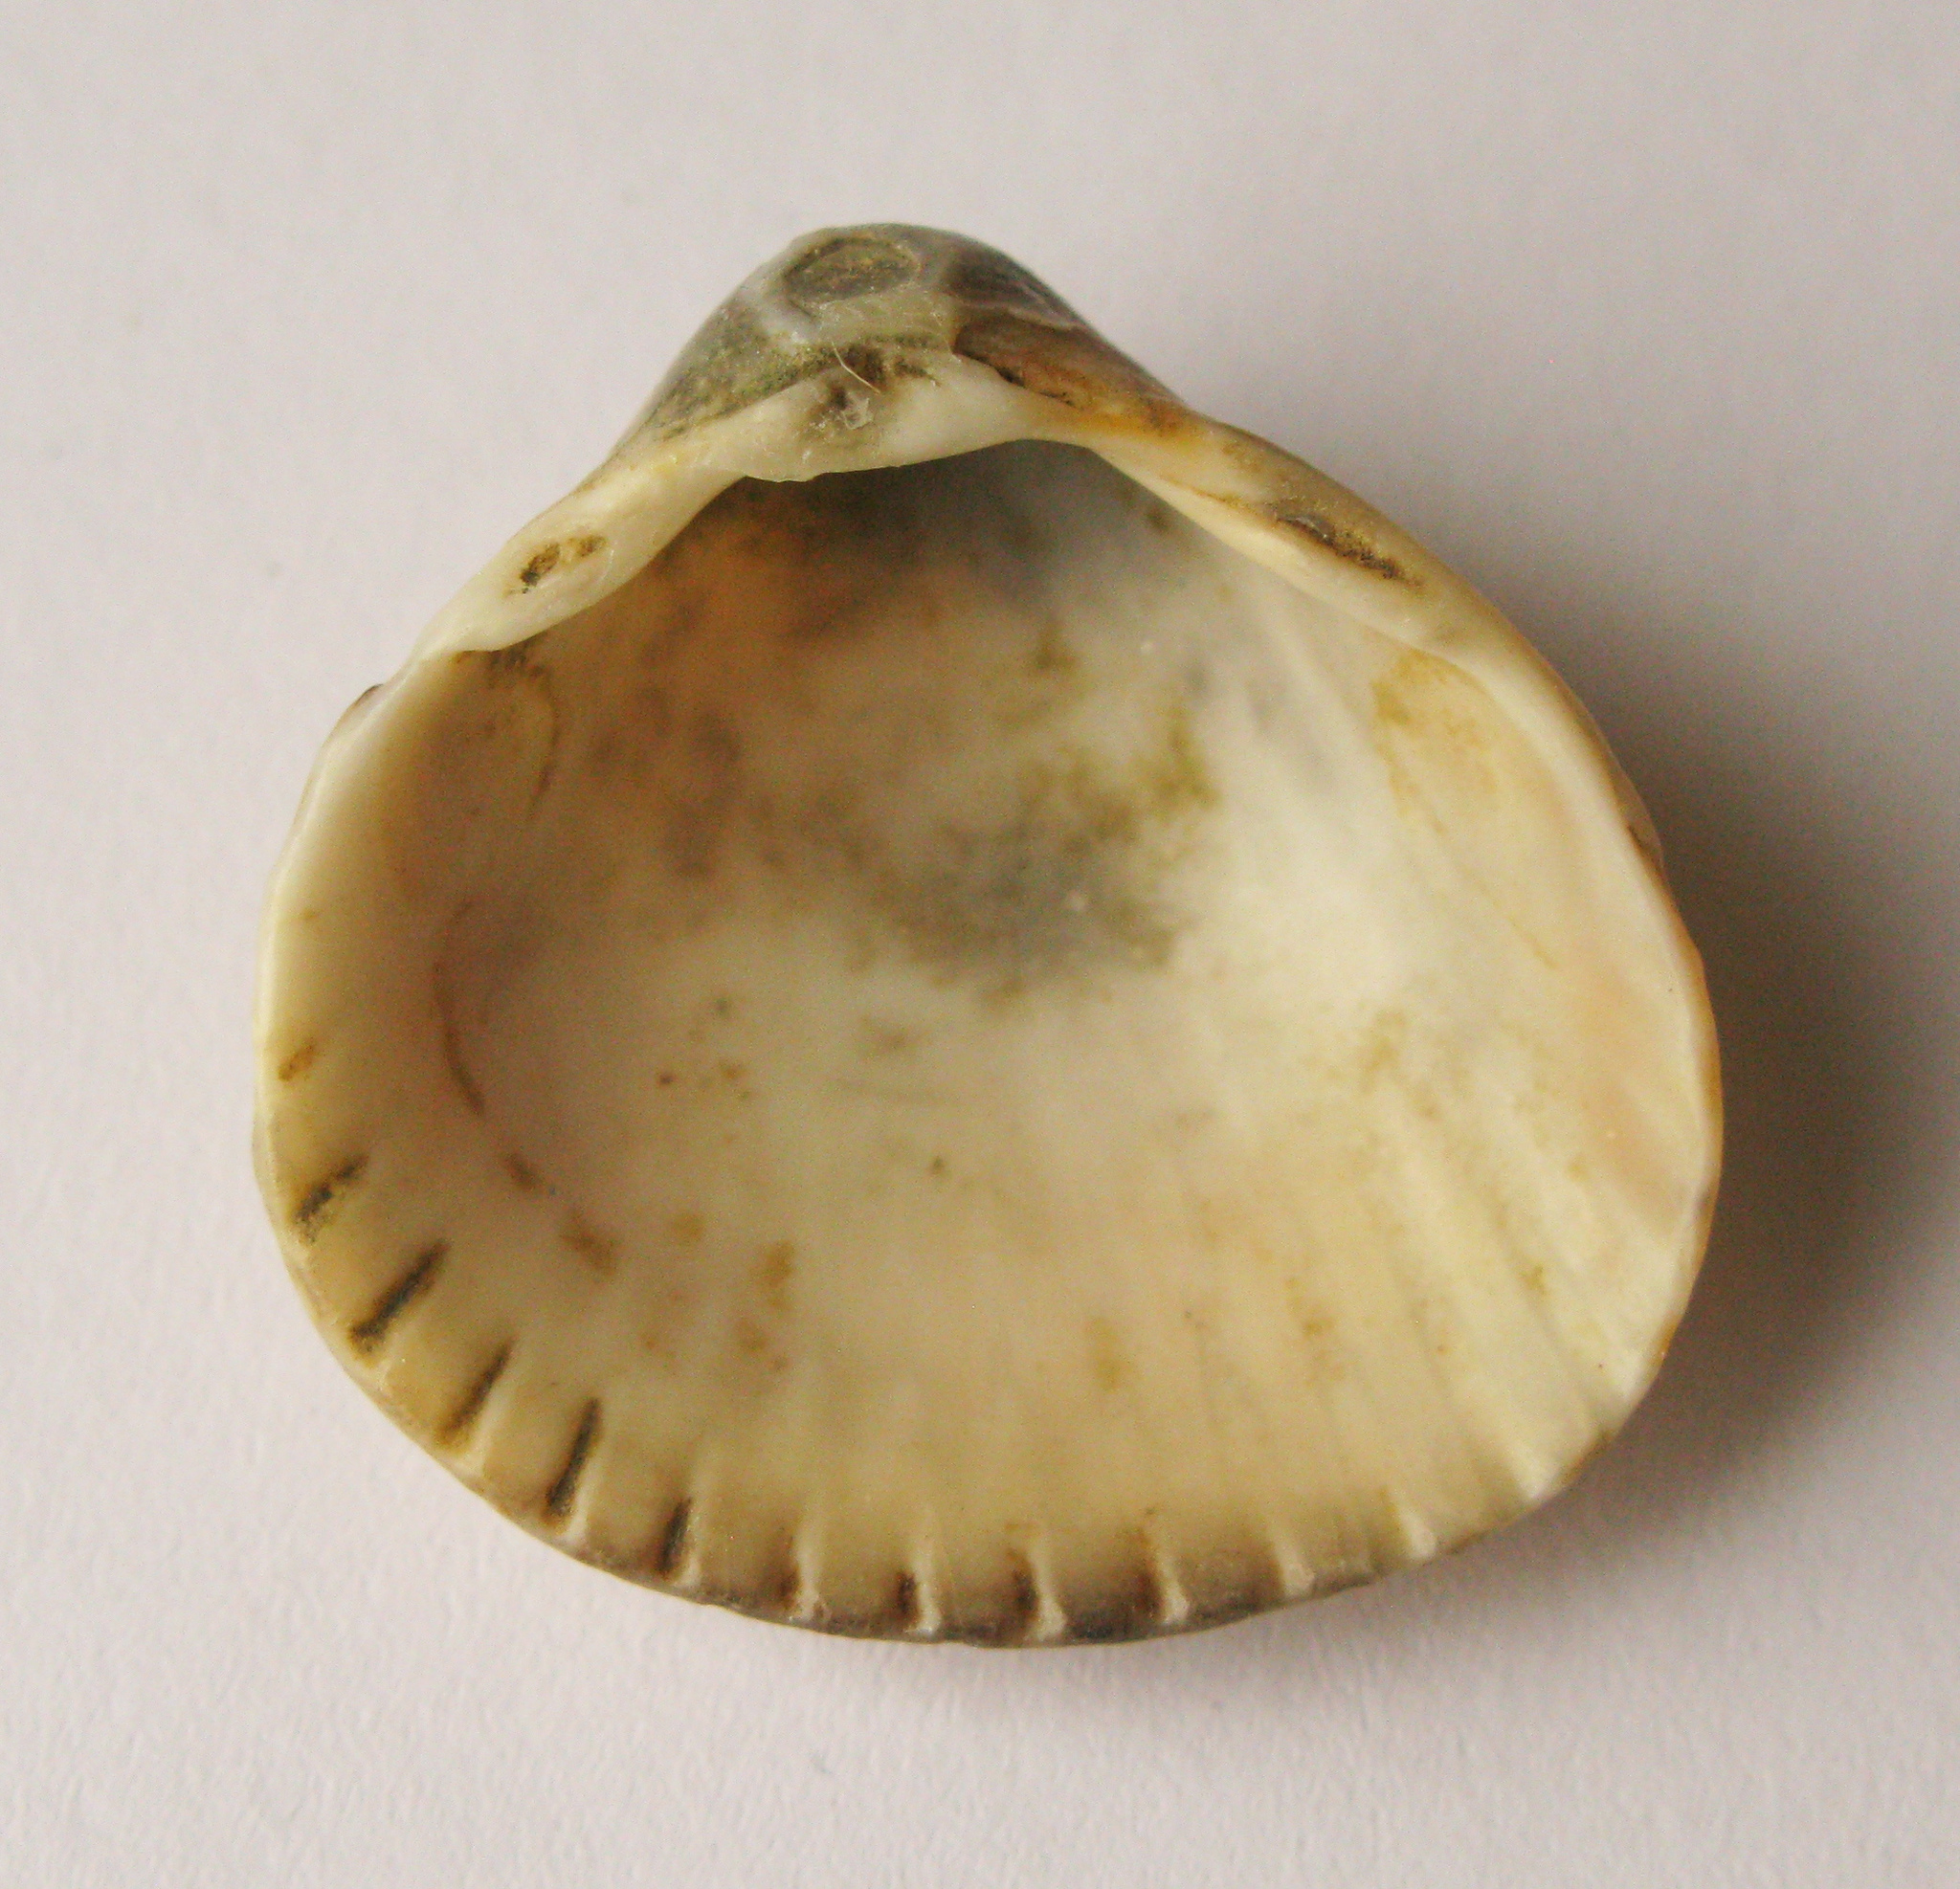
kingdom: Animalia
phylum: Mollusca
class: Bivalvia
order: Cardiida
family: Cardiidae
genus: Cerastoderma
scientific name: Cerastoderma glaucum
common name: Lagoon cockle
